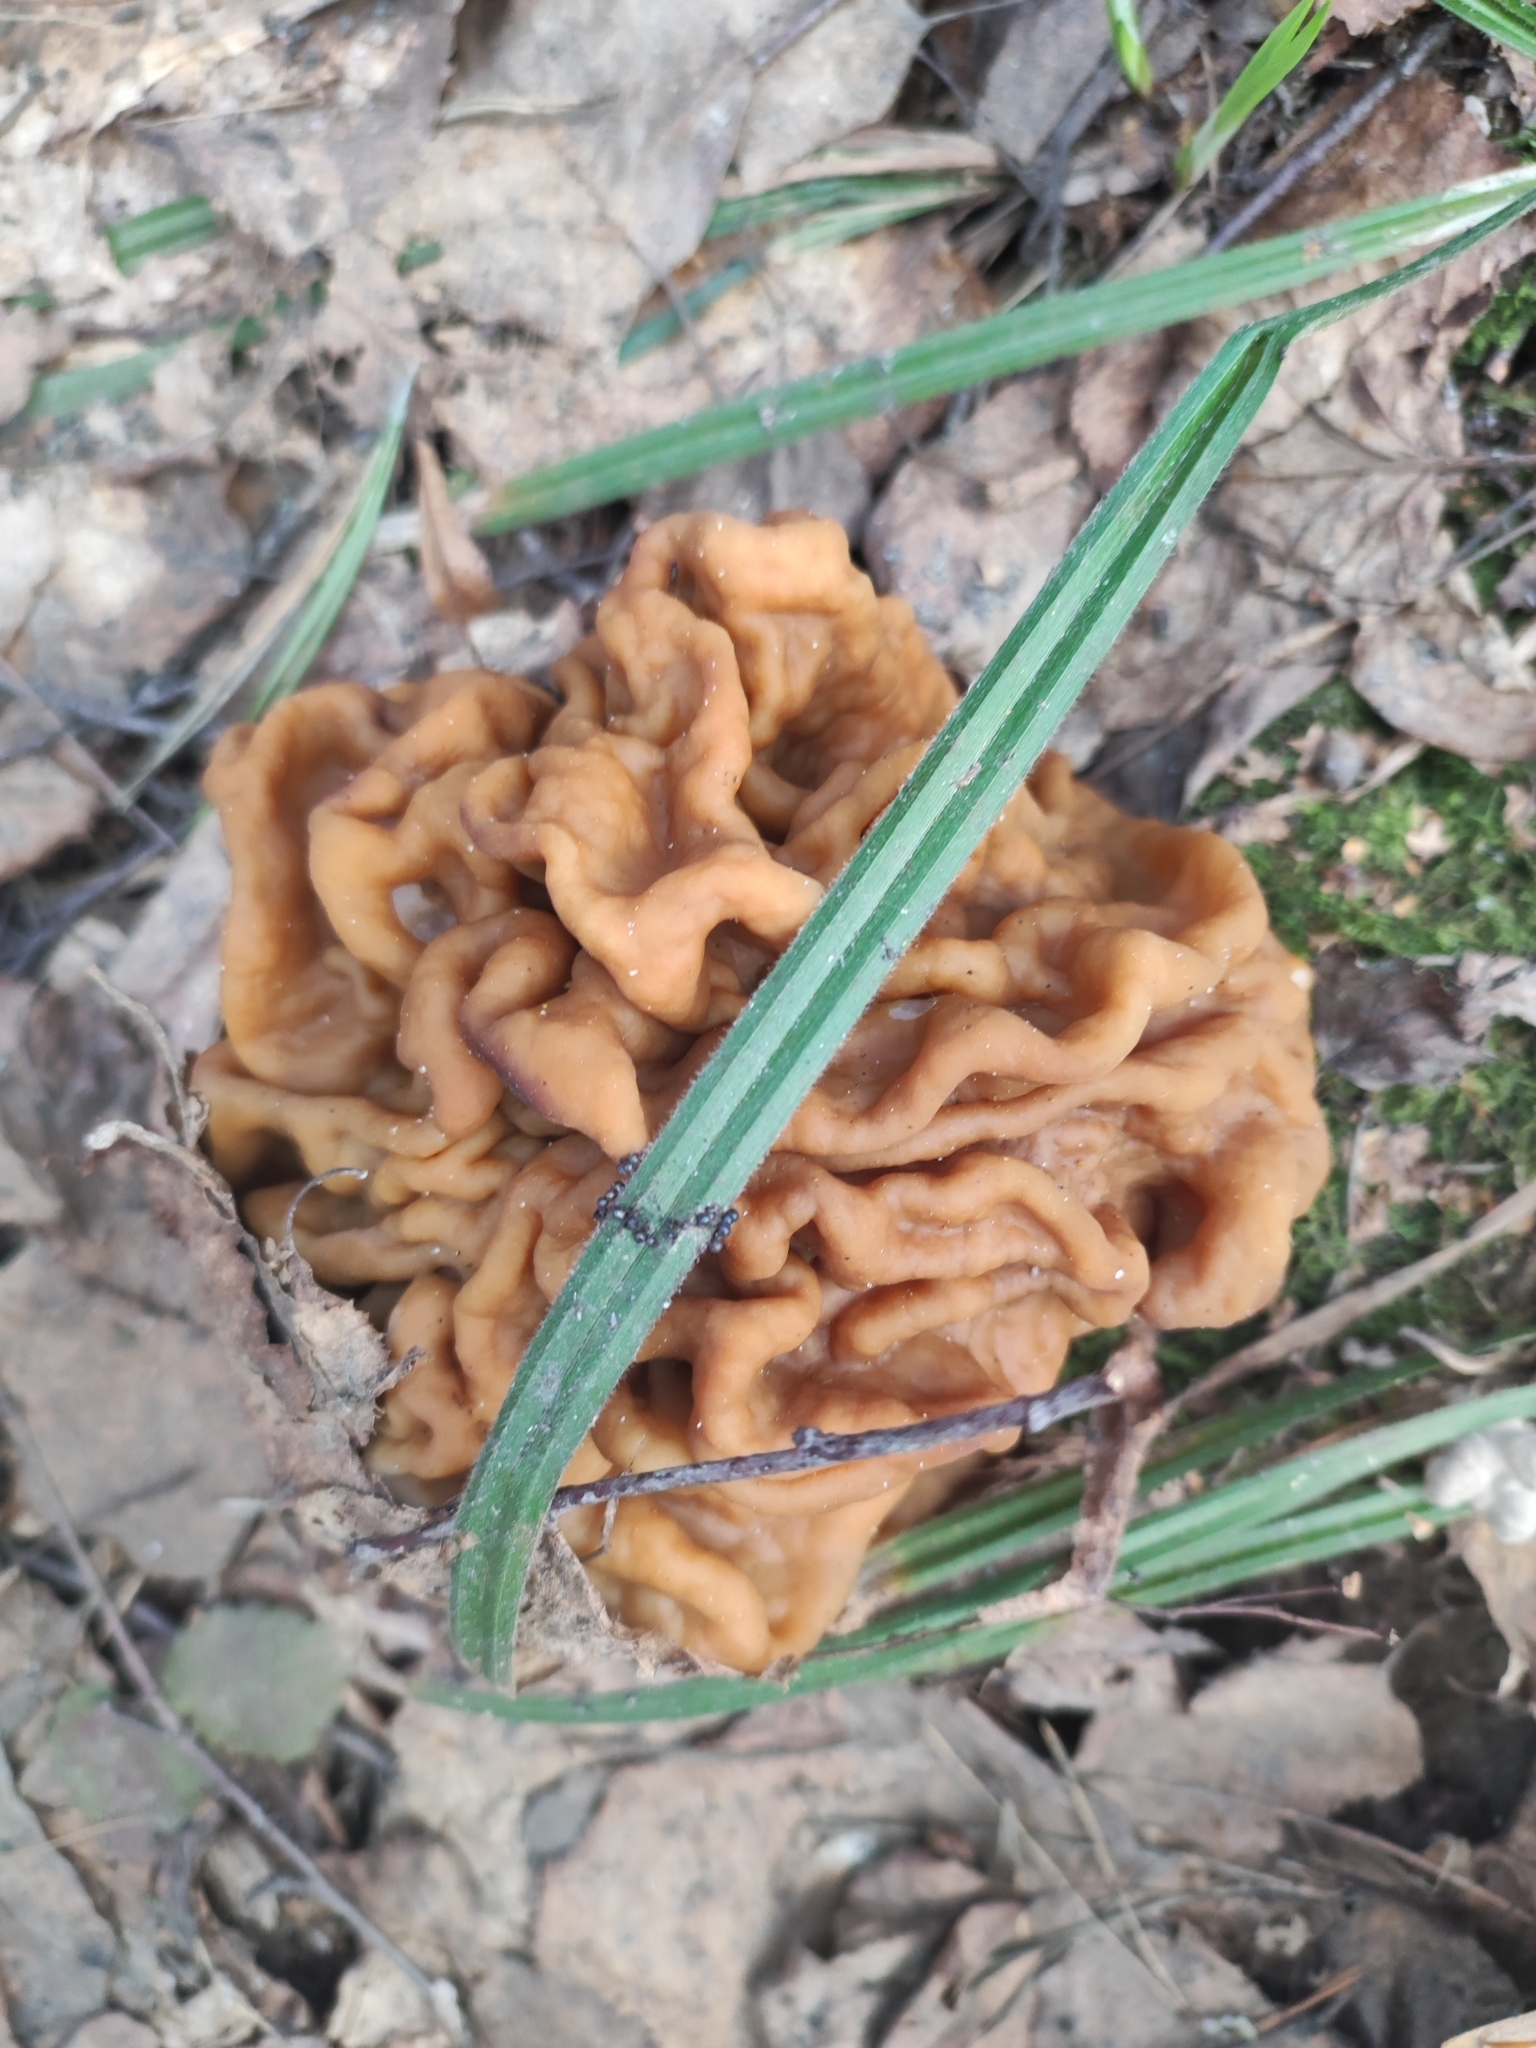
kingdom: Fungi
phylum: Ascomycota
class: Pezizomycetes
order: Pezizales
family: Discinaceae
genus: Gyromitra
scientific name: Gyromitra gigas
